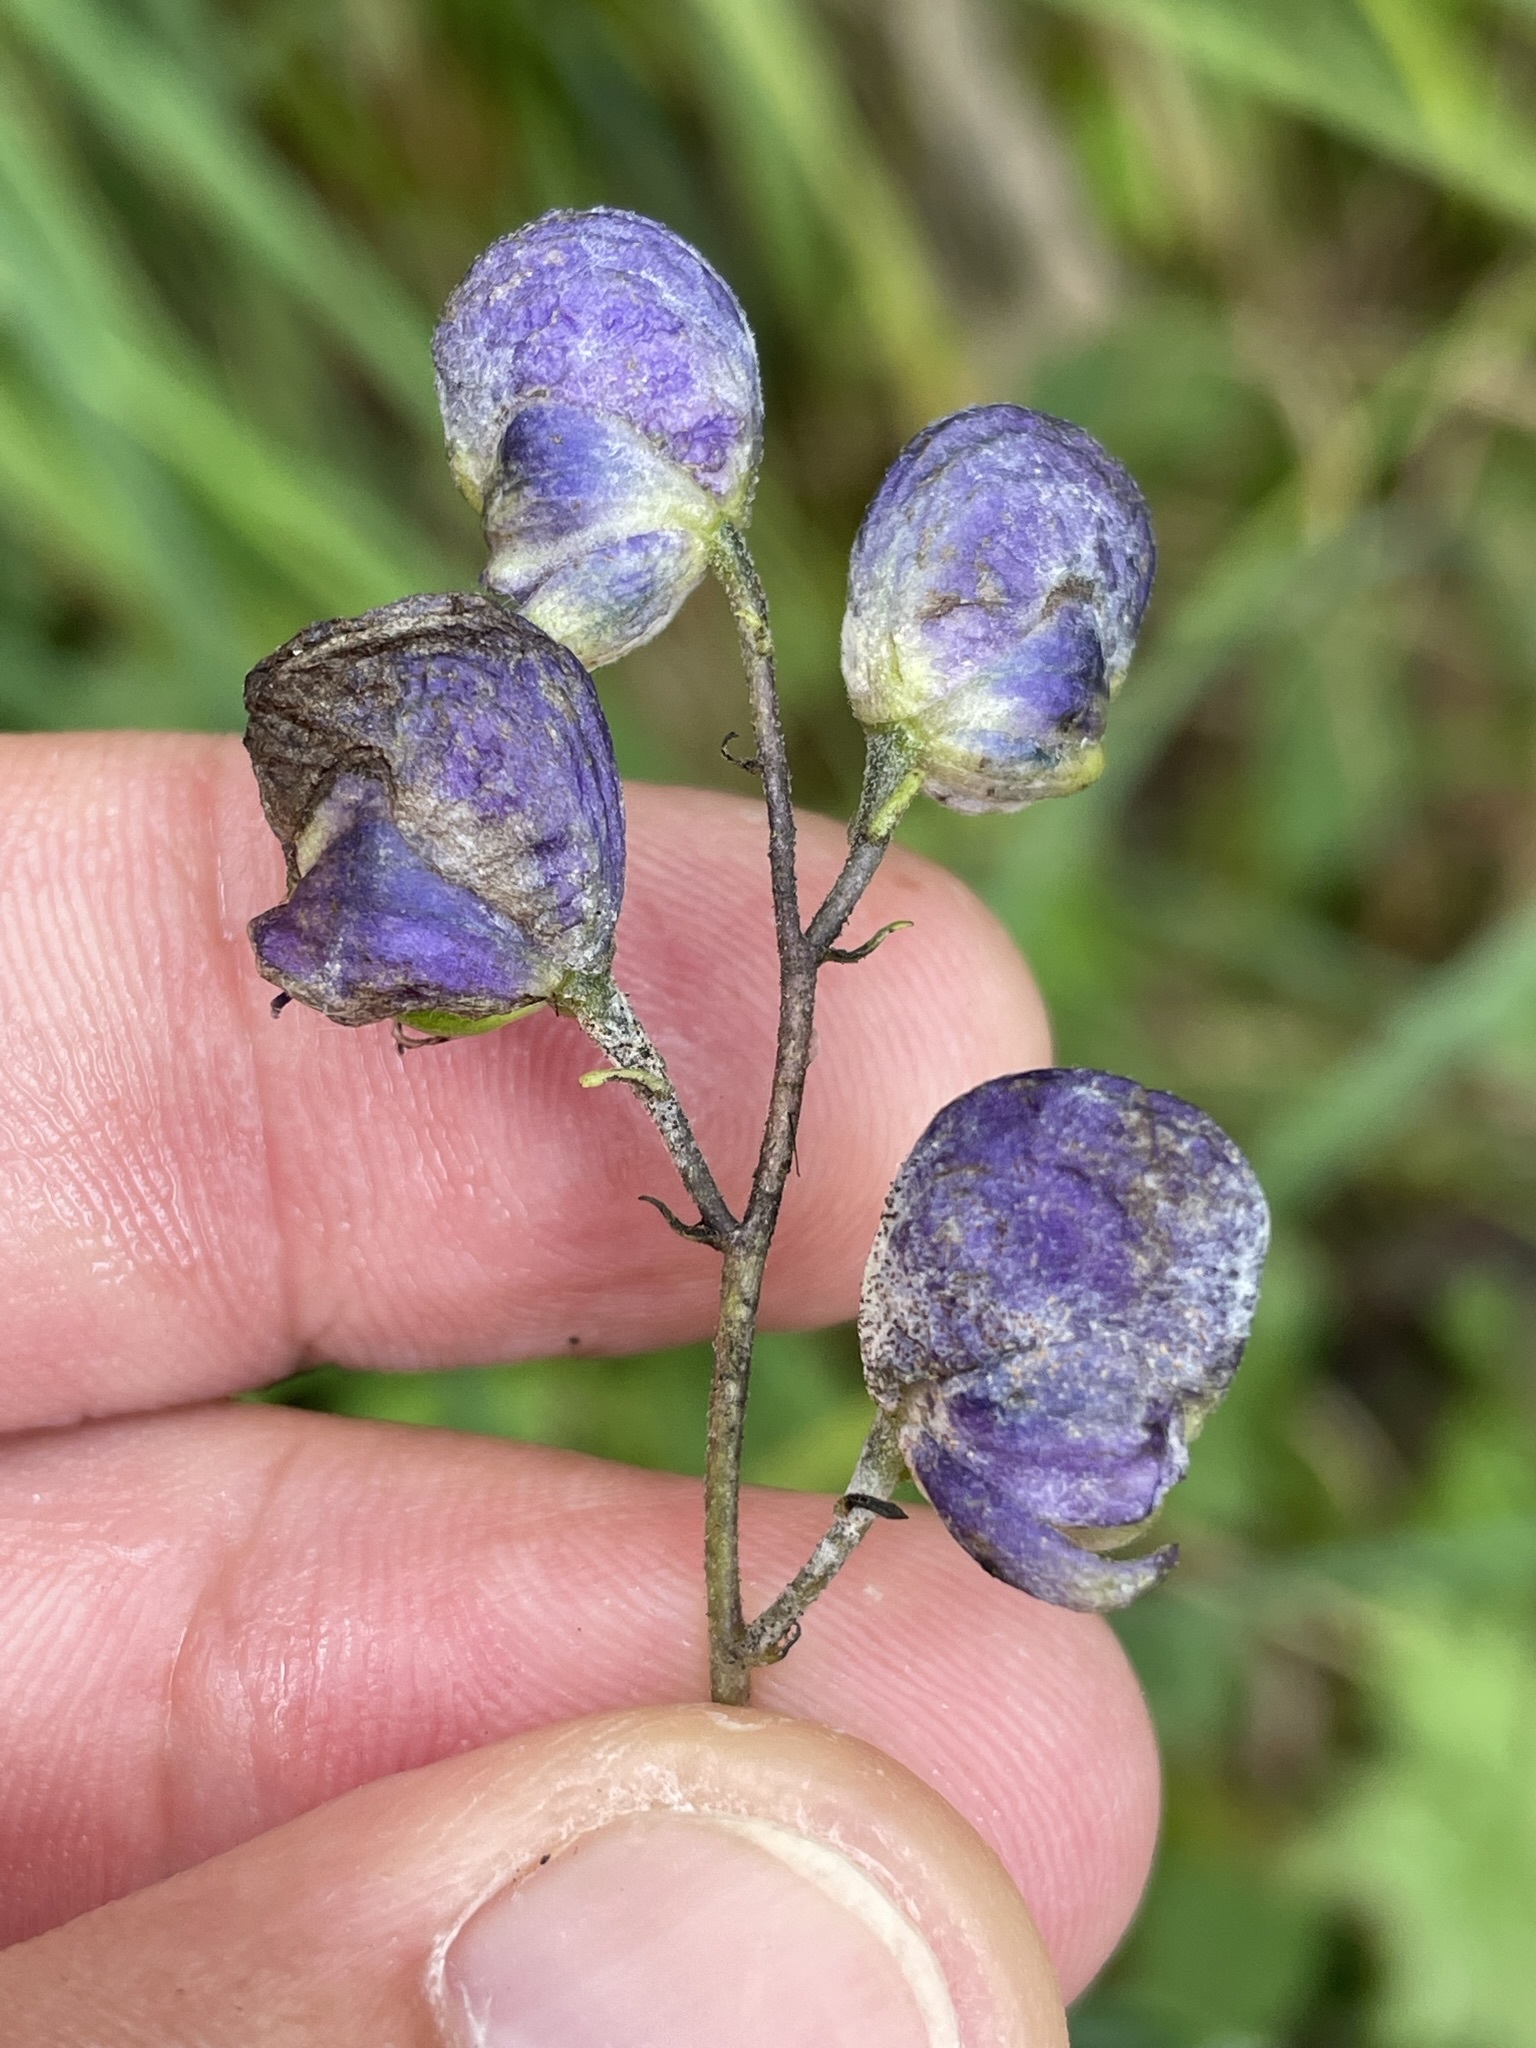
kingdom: Plantae
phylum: Tracheophyta
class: Magnoliopsida
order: Ranunculales
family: Ranunculaceae
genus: Aconitum
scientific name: Aconitum napellus
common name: Garden monkshood
